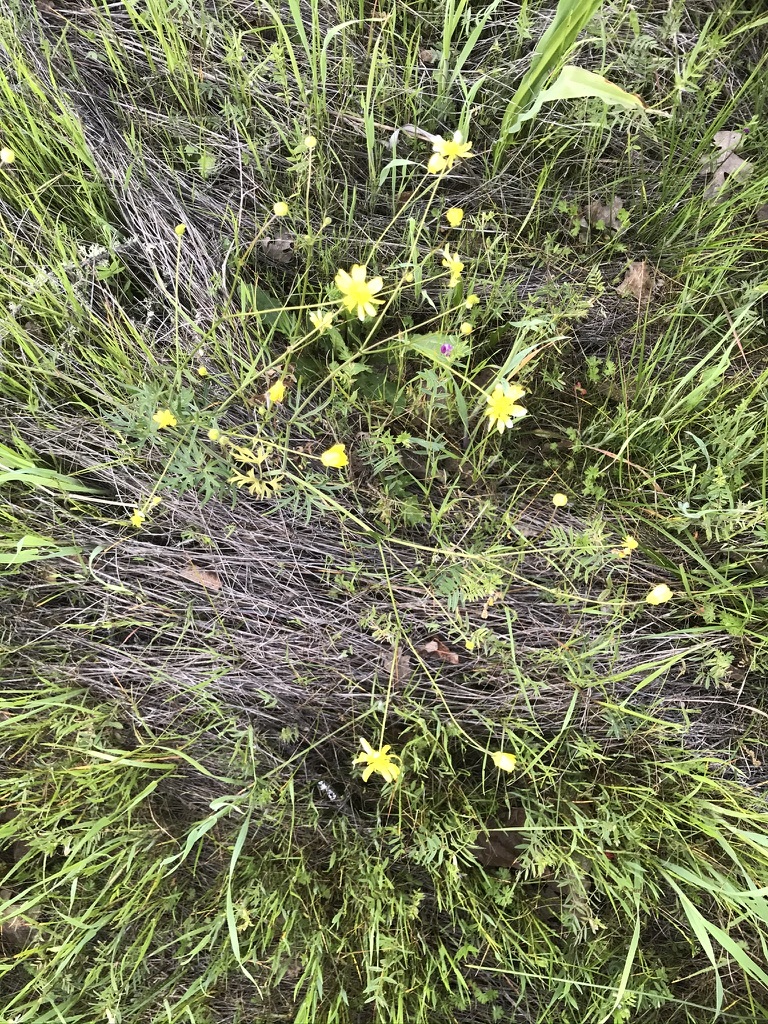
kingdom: Plantae
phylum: Tracheophyta
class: Magnoliopsida
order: Ranunculales
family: Ranunculaceae
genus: Ranunculus
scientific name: Ranunculus californicus
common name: California buttercup
